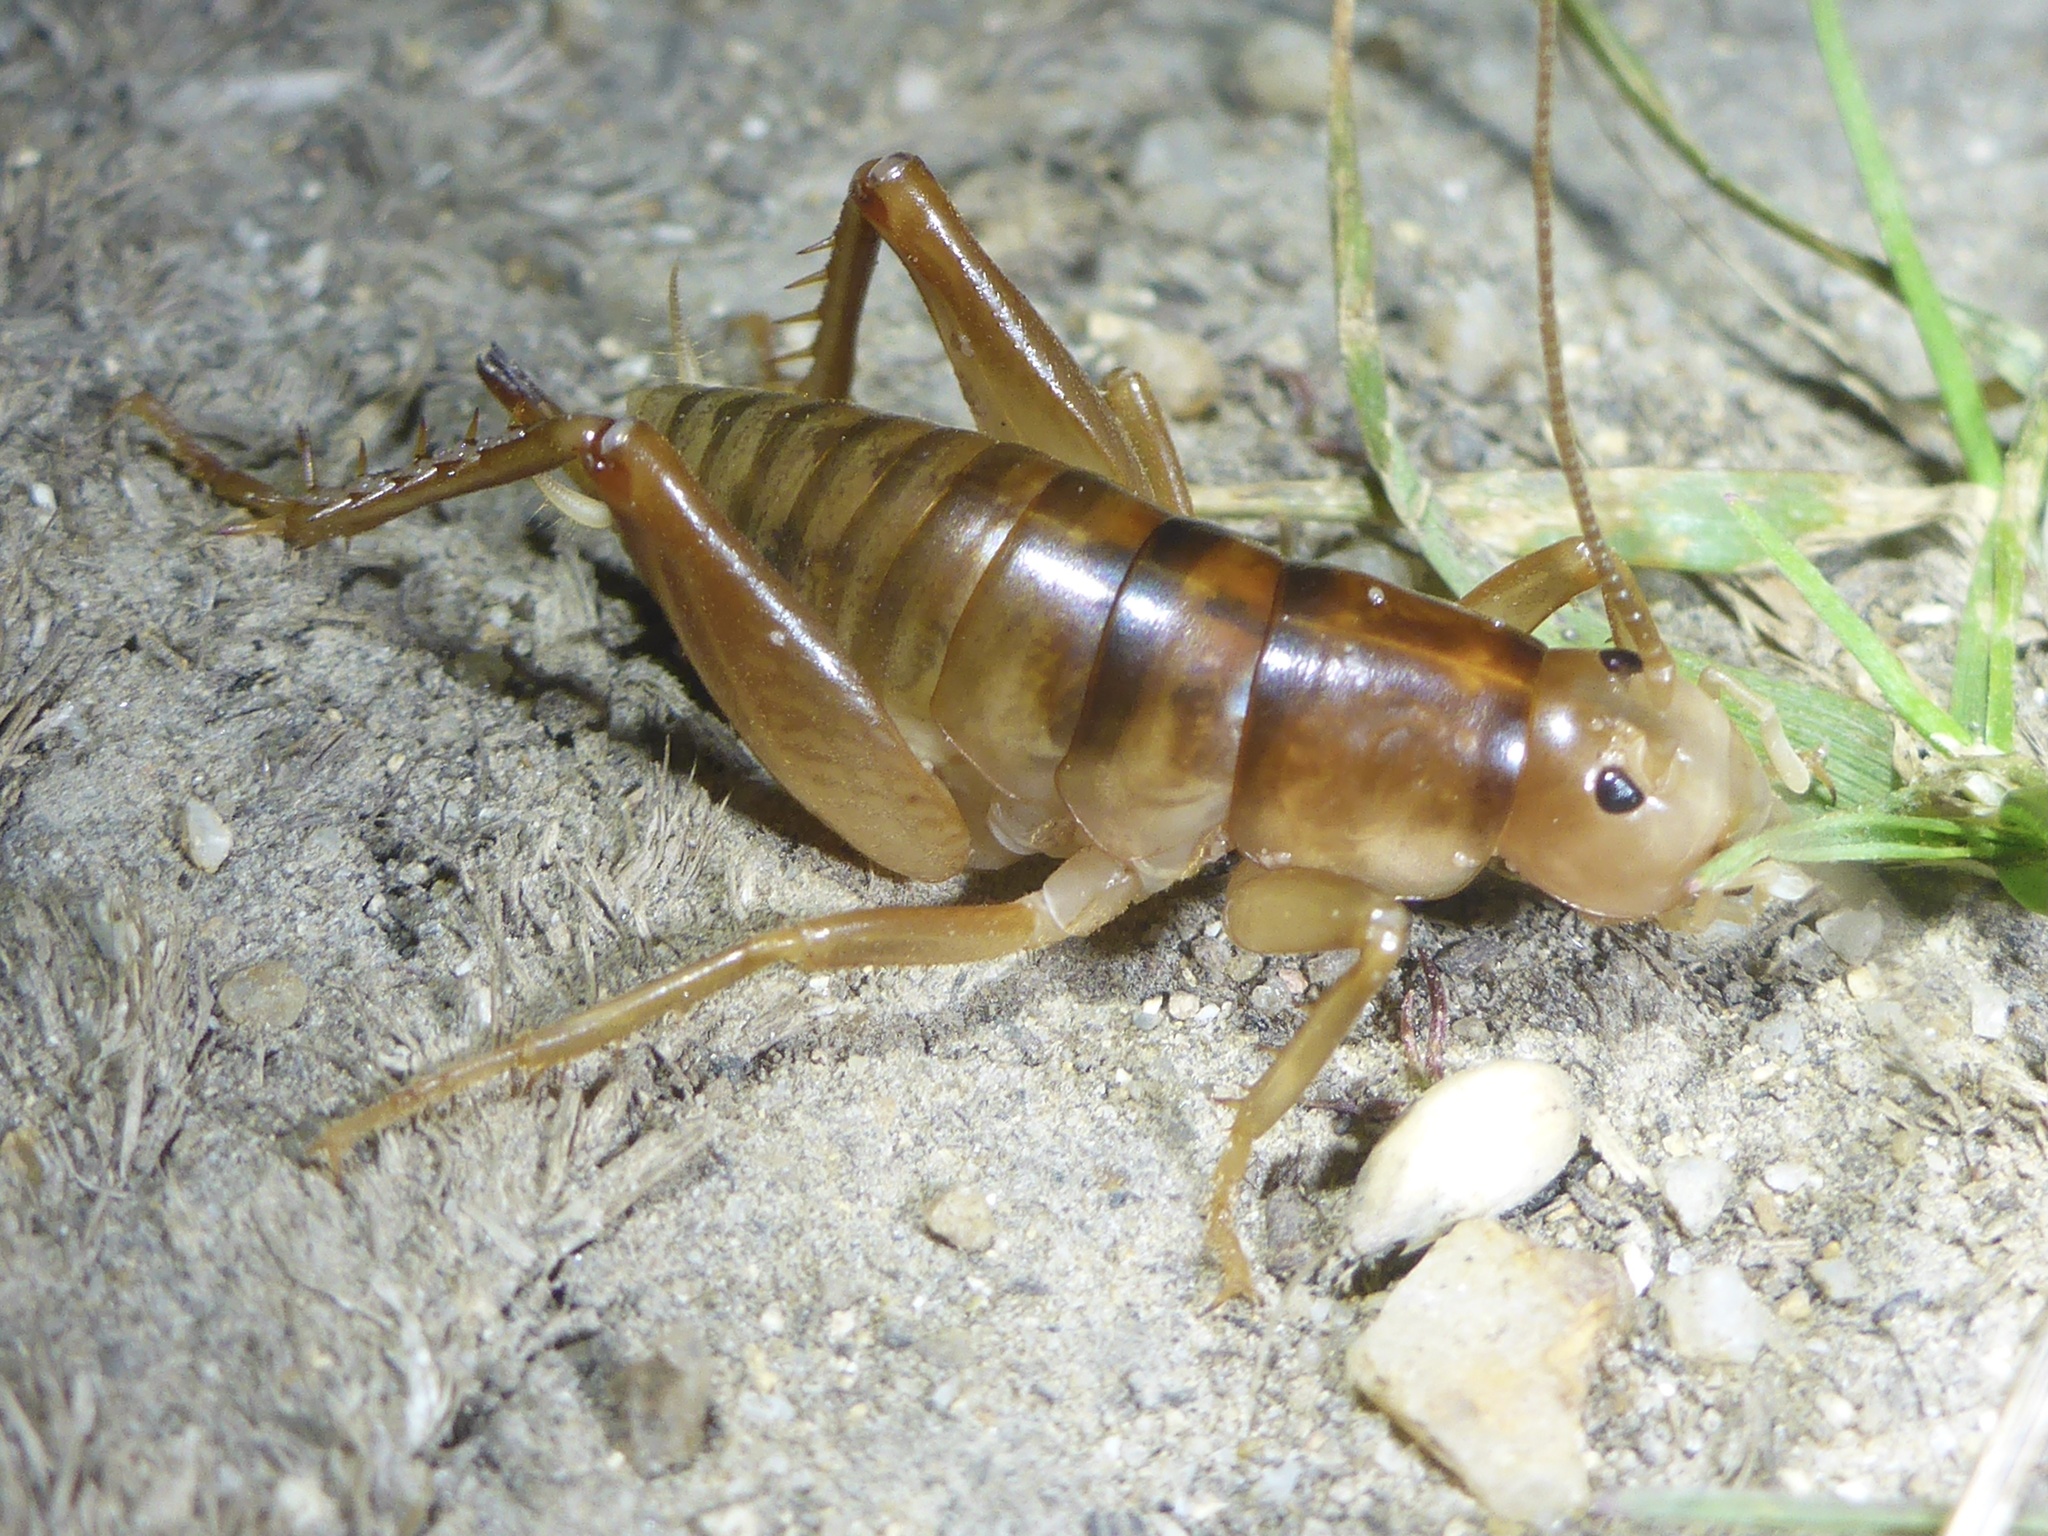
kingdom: Animalia
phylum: Arthropoda
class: Insecta
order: Orthoptera
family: Rhaphidophoridae
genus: Ceuthophilus
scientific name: Ceuthophilus californianus
